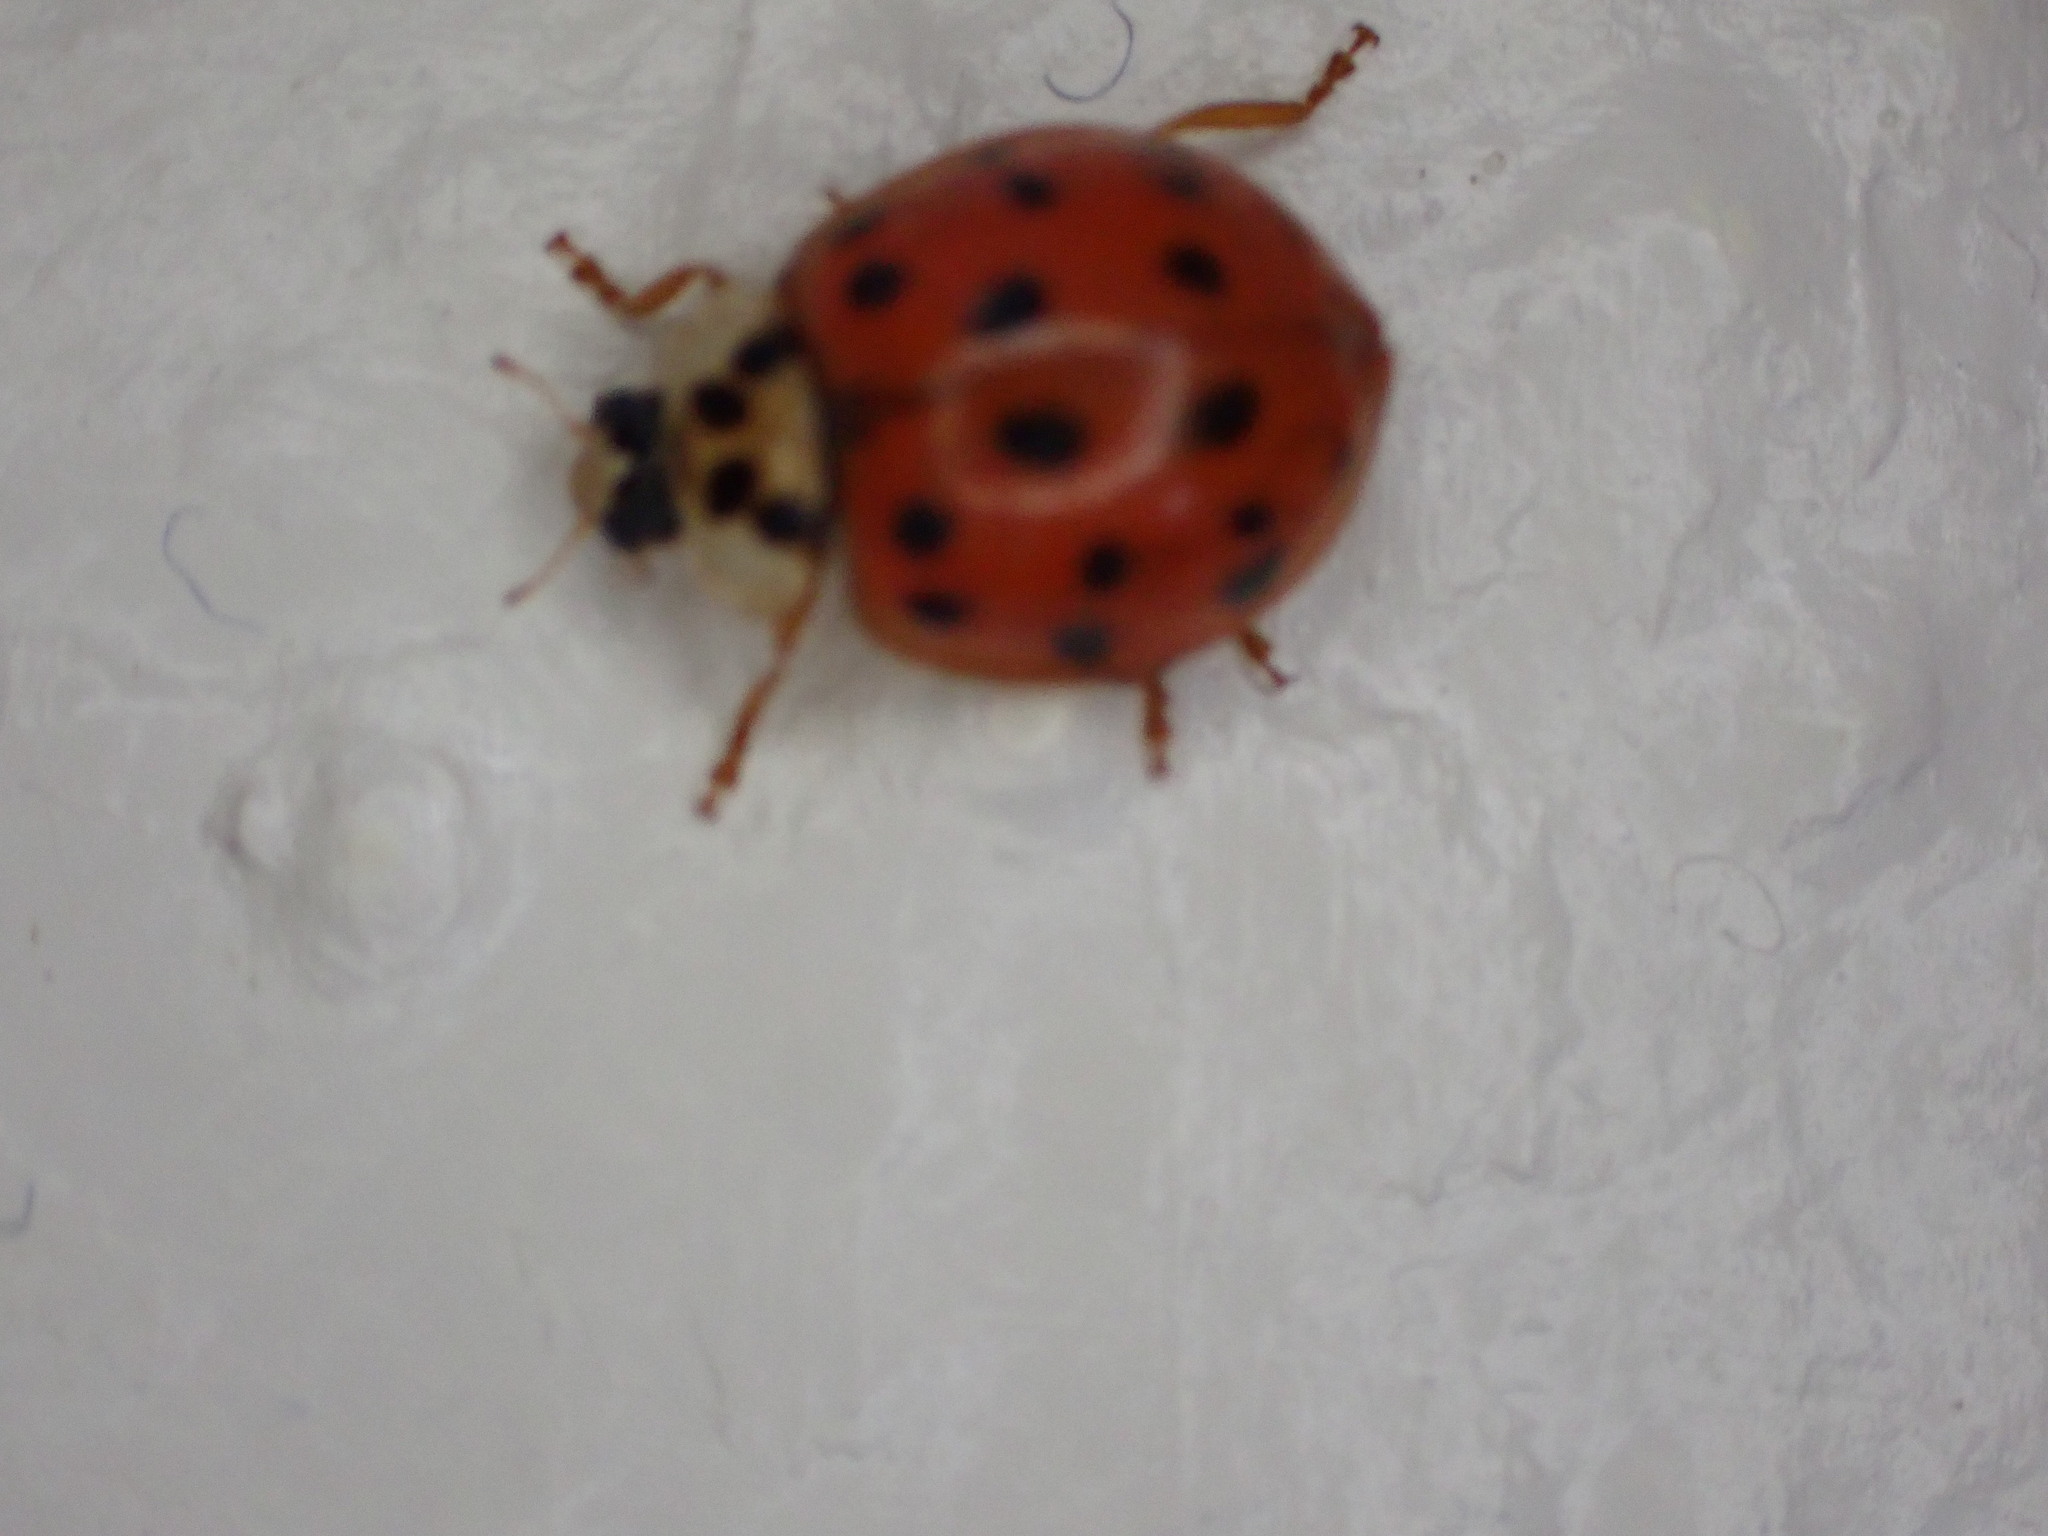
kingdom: Animalia
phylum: Arthropoda
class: Insecta
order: Coleoptera
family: Coccinellidae
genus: Harmonia
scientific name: Harmonia axyridis
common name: Harlequin ladybird
